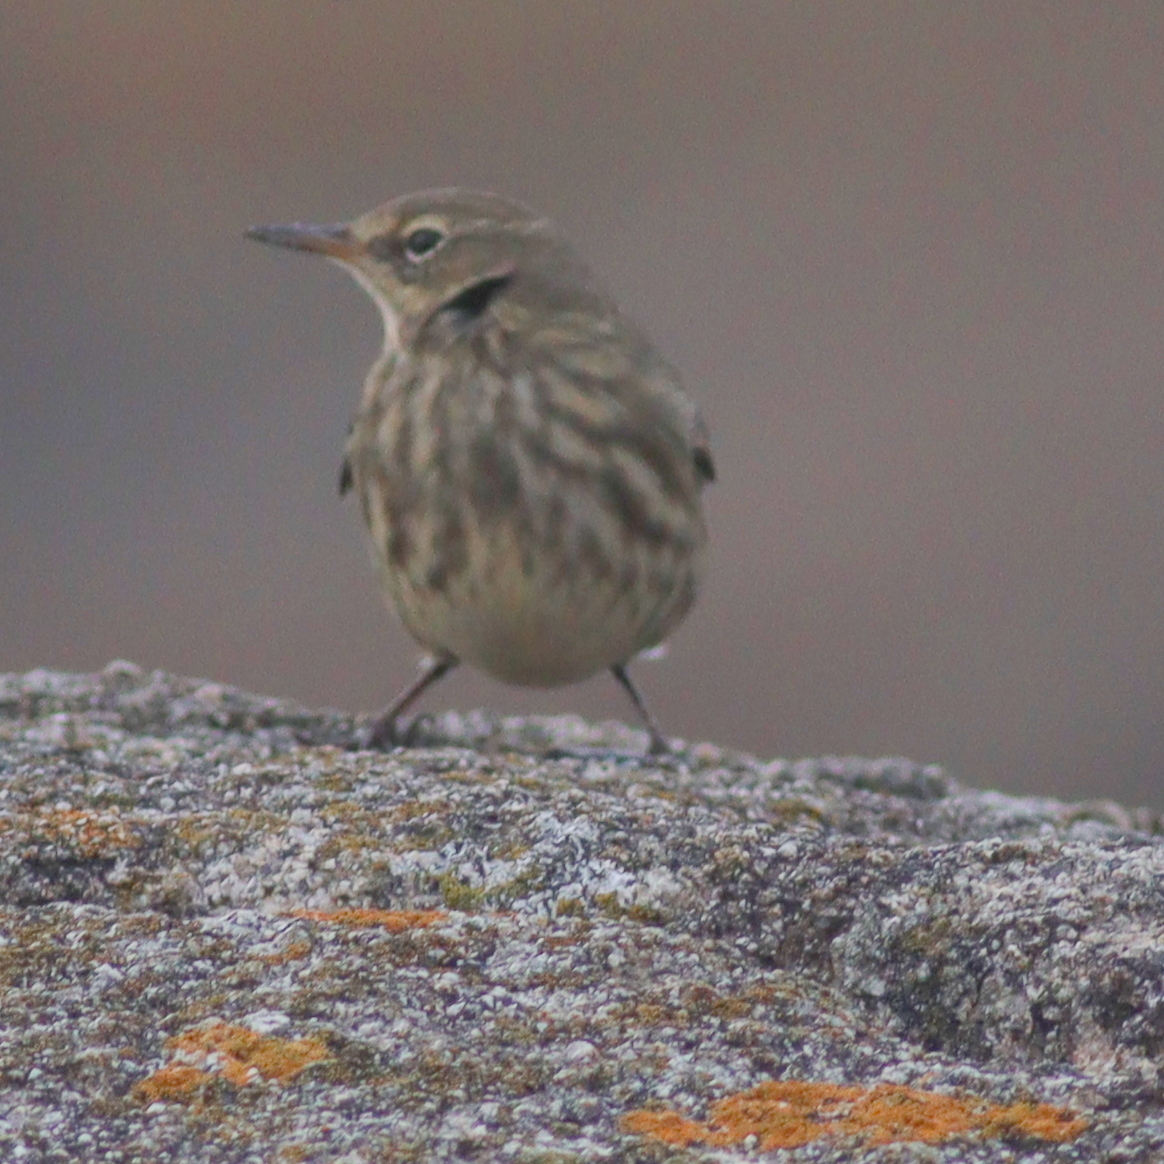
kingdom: Animalia
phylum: Chordata
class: Aves
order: Passeriformes
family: Motacillidae
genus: Anthus
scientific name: Anthus petrosus
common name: Eurasian rock pipit
